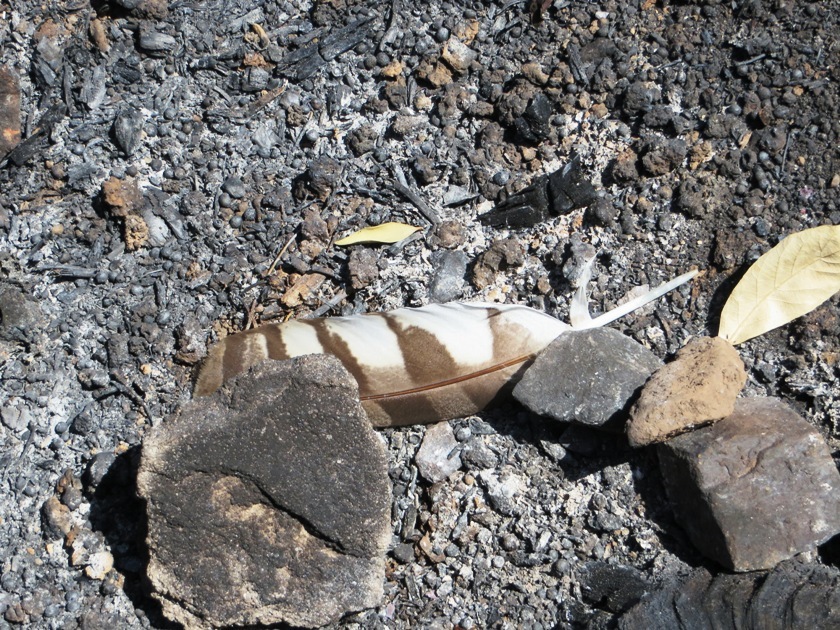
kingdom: Animalia
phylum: Chordata
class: Aves
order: Strigiformes
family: Strigidae
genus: Bubo
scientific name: Bubo africanus
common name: Spotted eagle-owl
